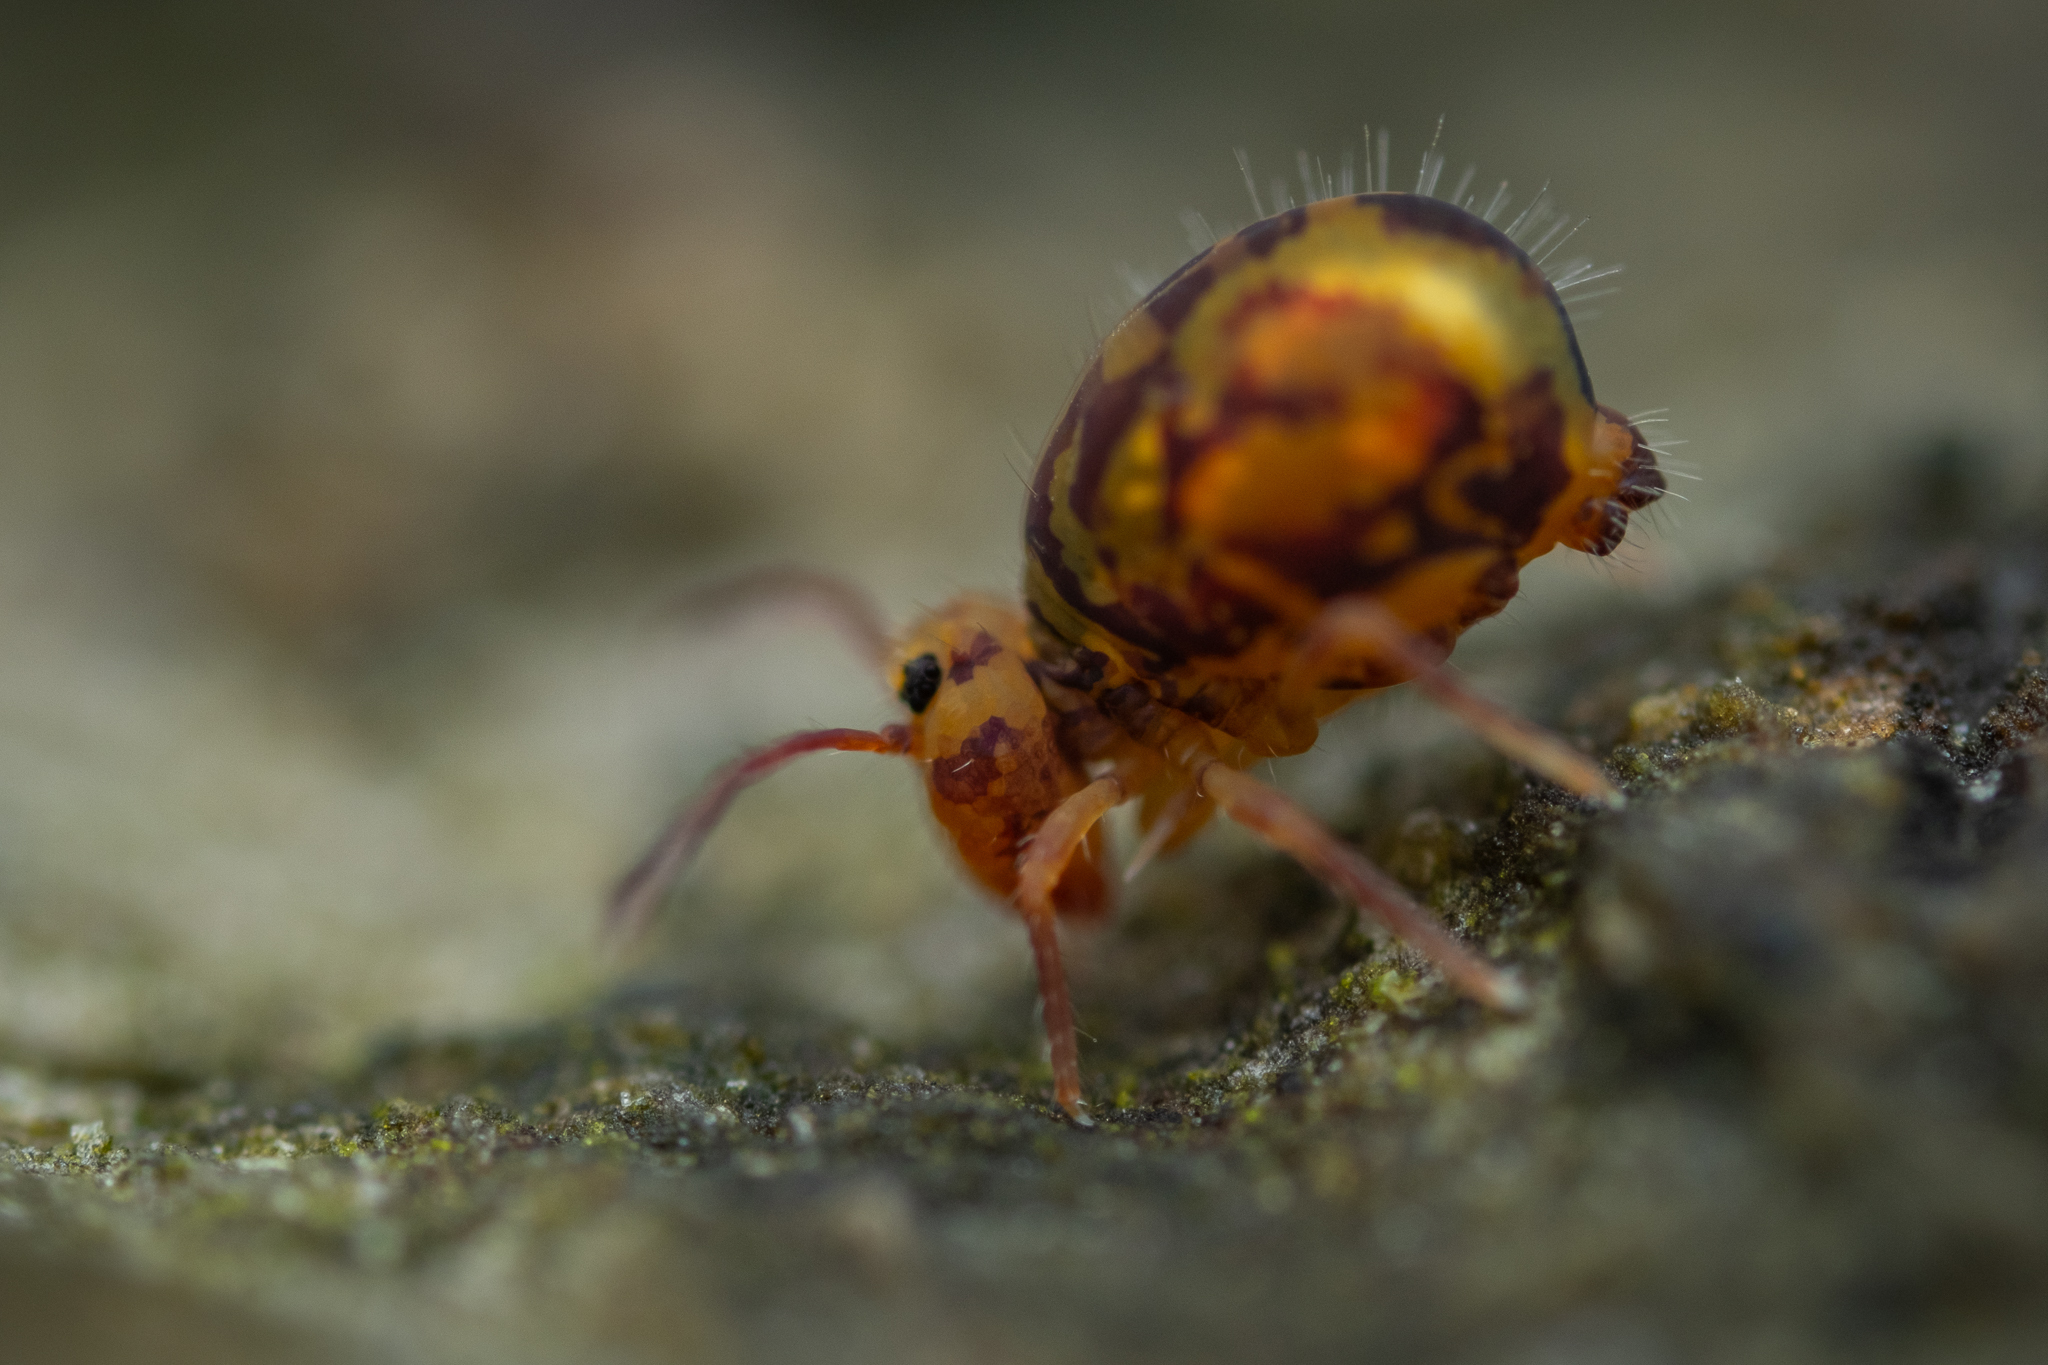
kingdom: Animalia
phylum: Arthropoda
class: Collembola
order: Symphypleona
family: Dicyrtomidae
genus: Dicyrtomina
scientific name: Dicyrtomina ornata
